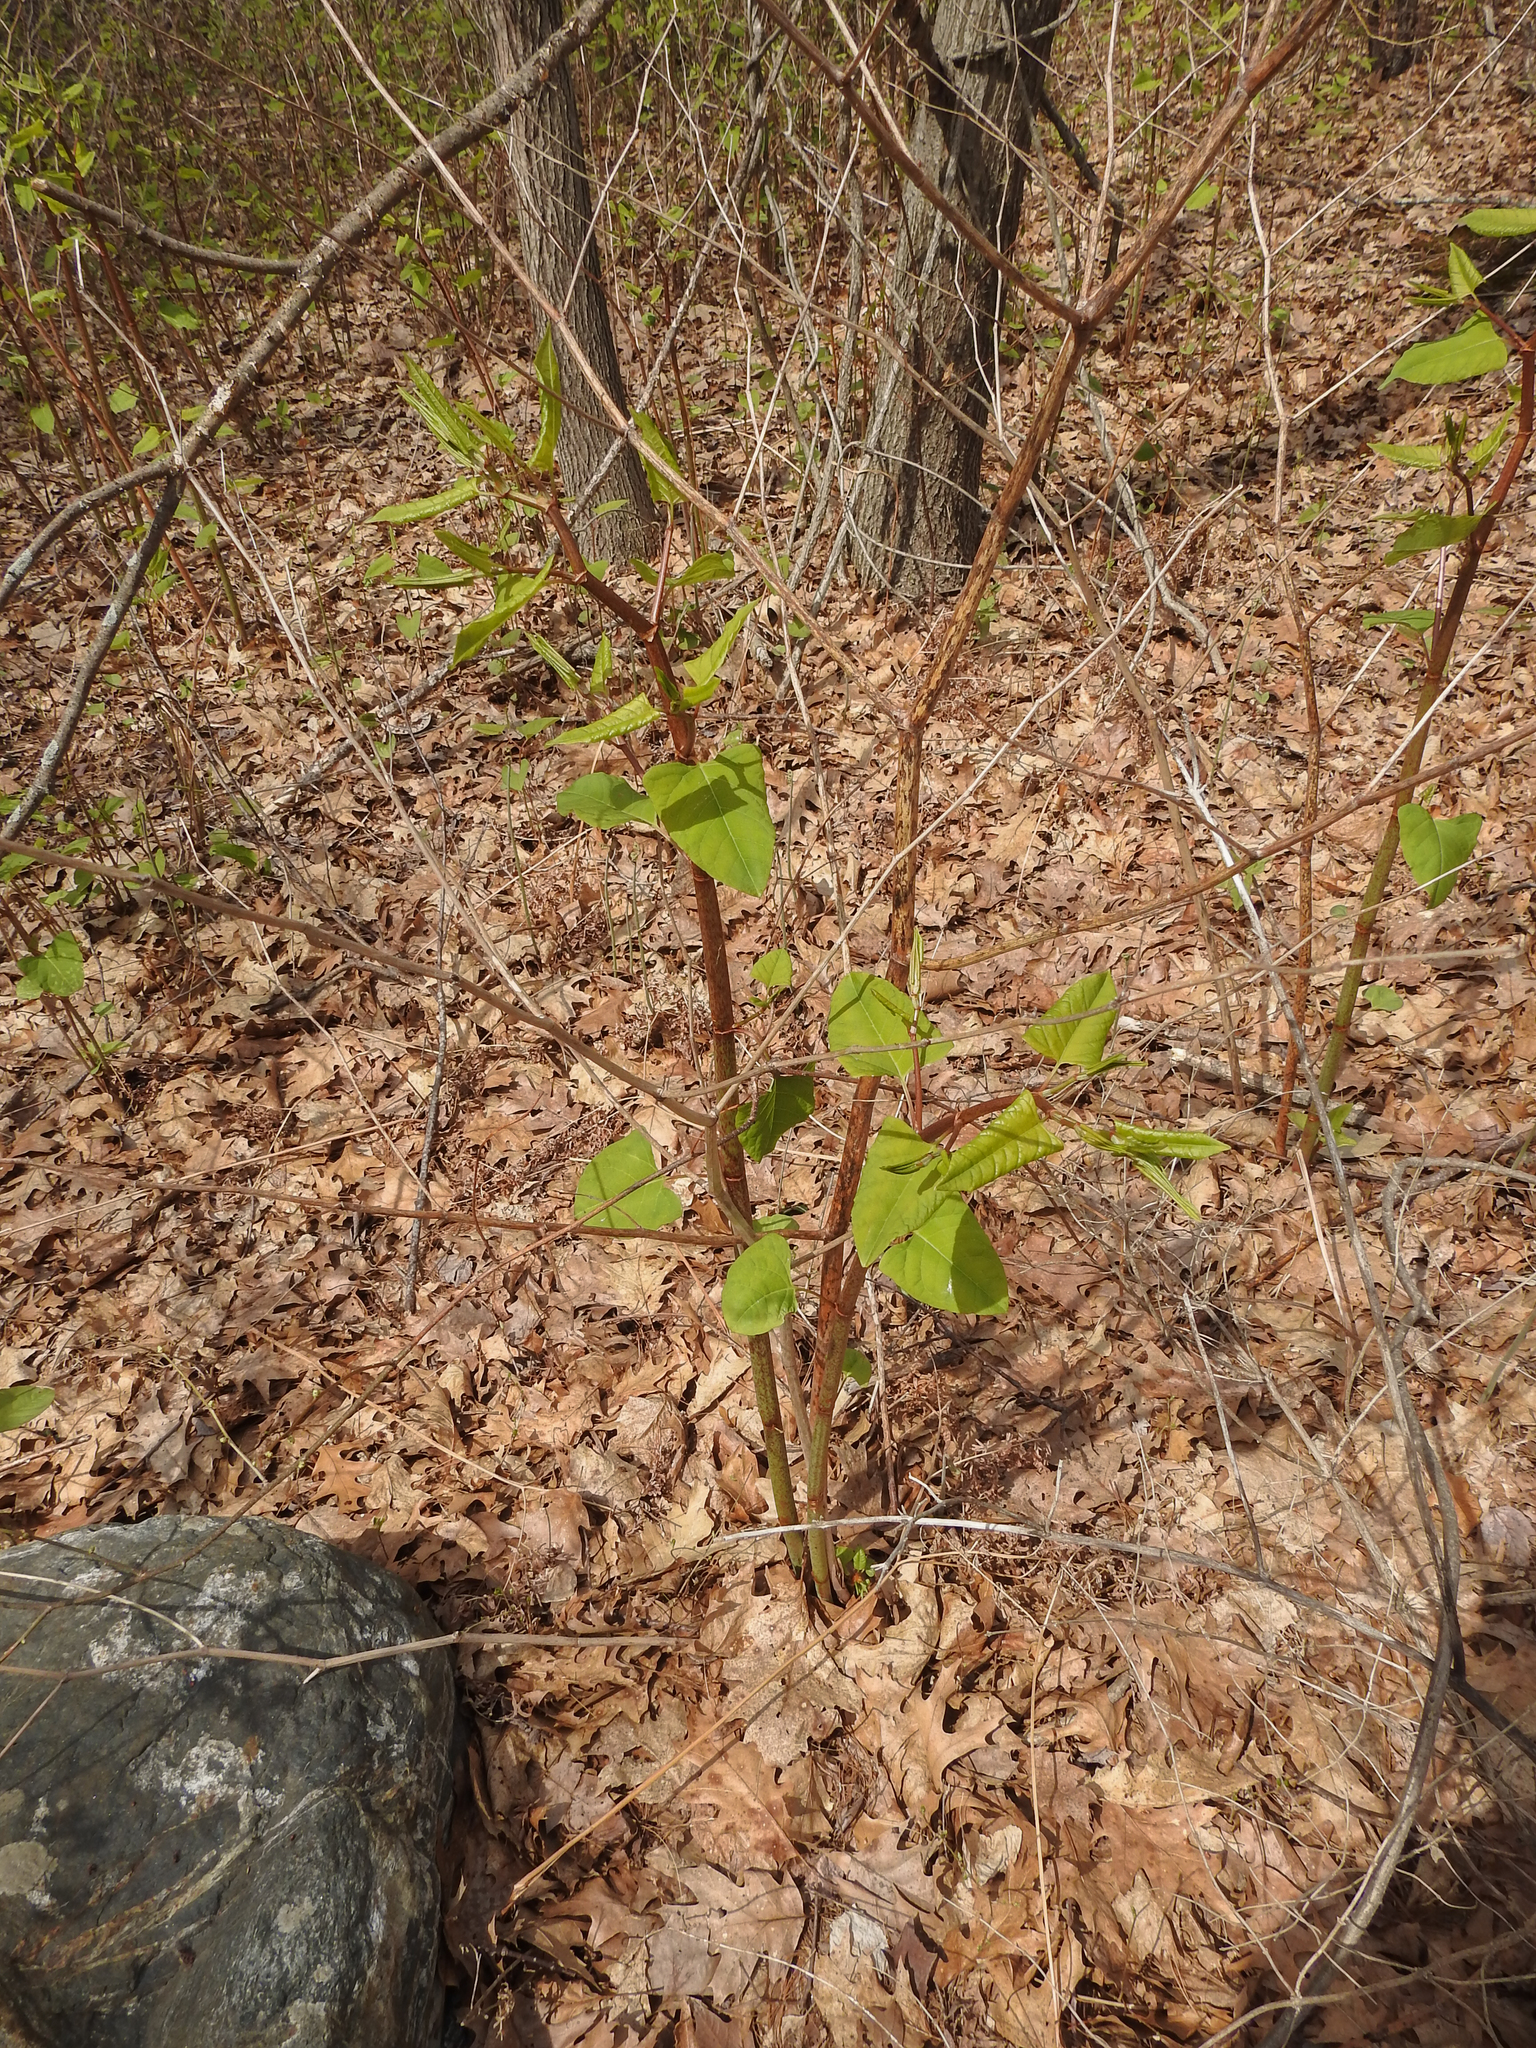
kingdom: Plantae
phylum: Tracheophyta
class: Magnoliopsida
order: Caryophyllales
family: Polygonaceae
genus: Reynoutria
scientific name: Reynoutria japonica
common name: Japanese knotweed
